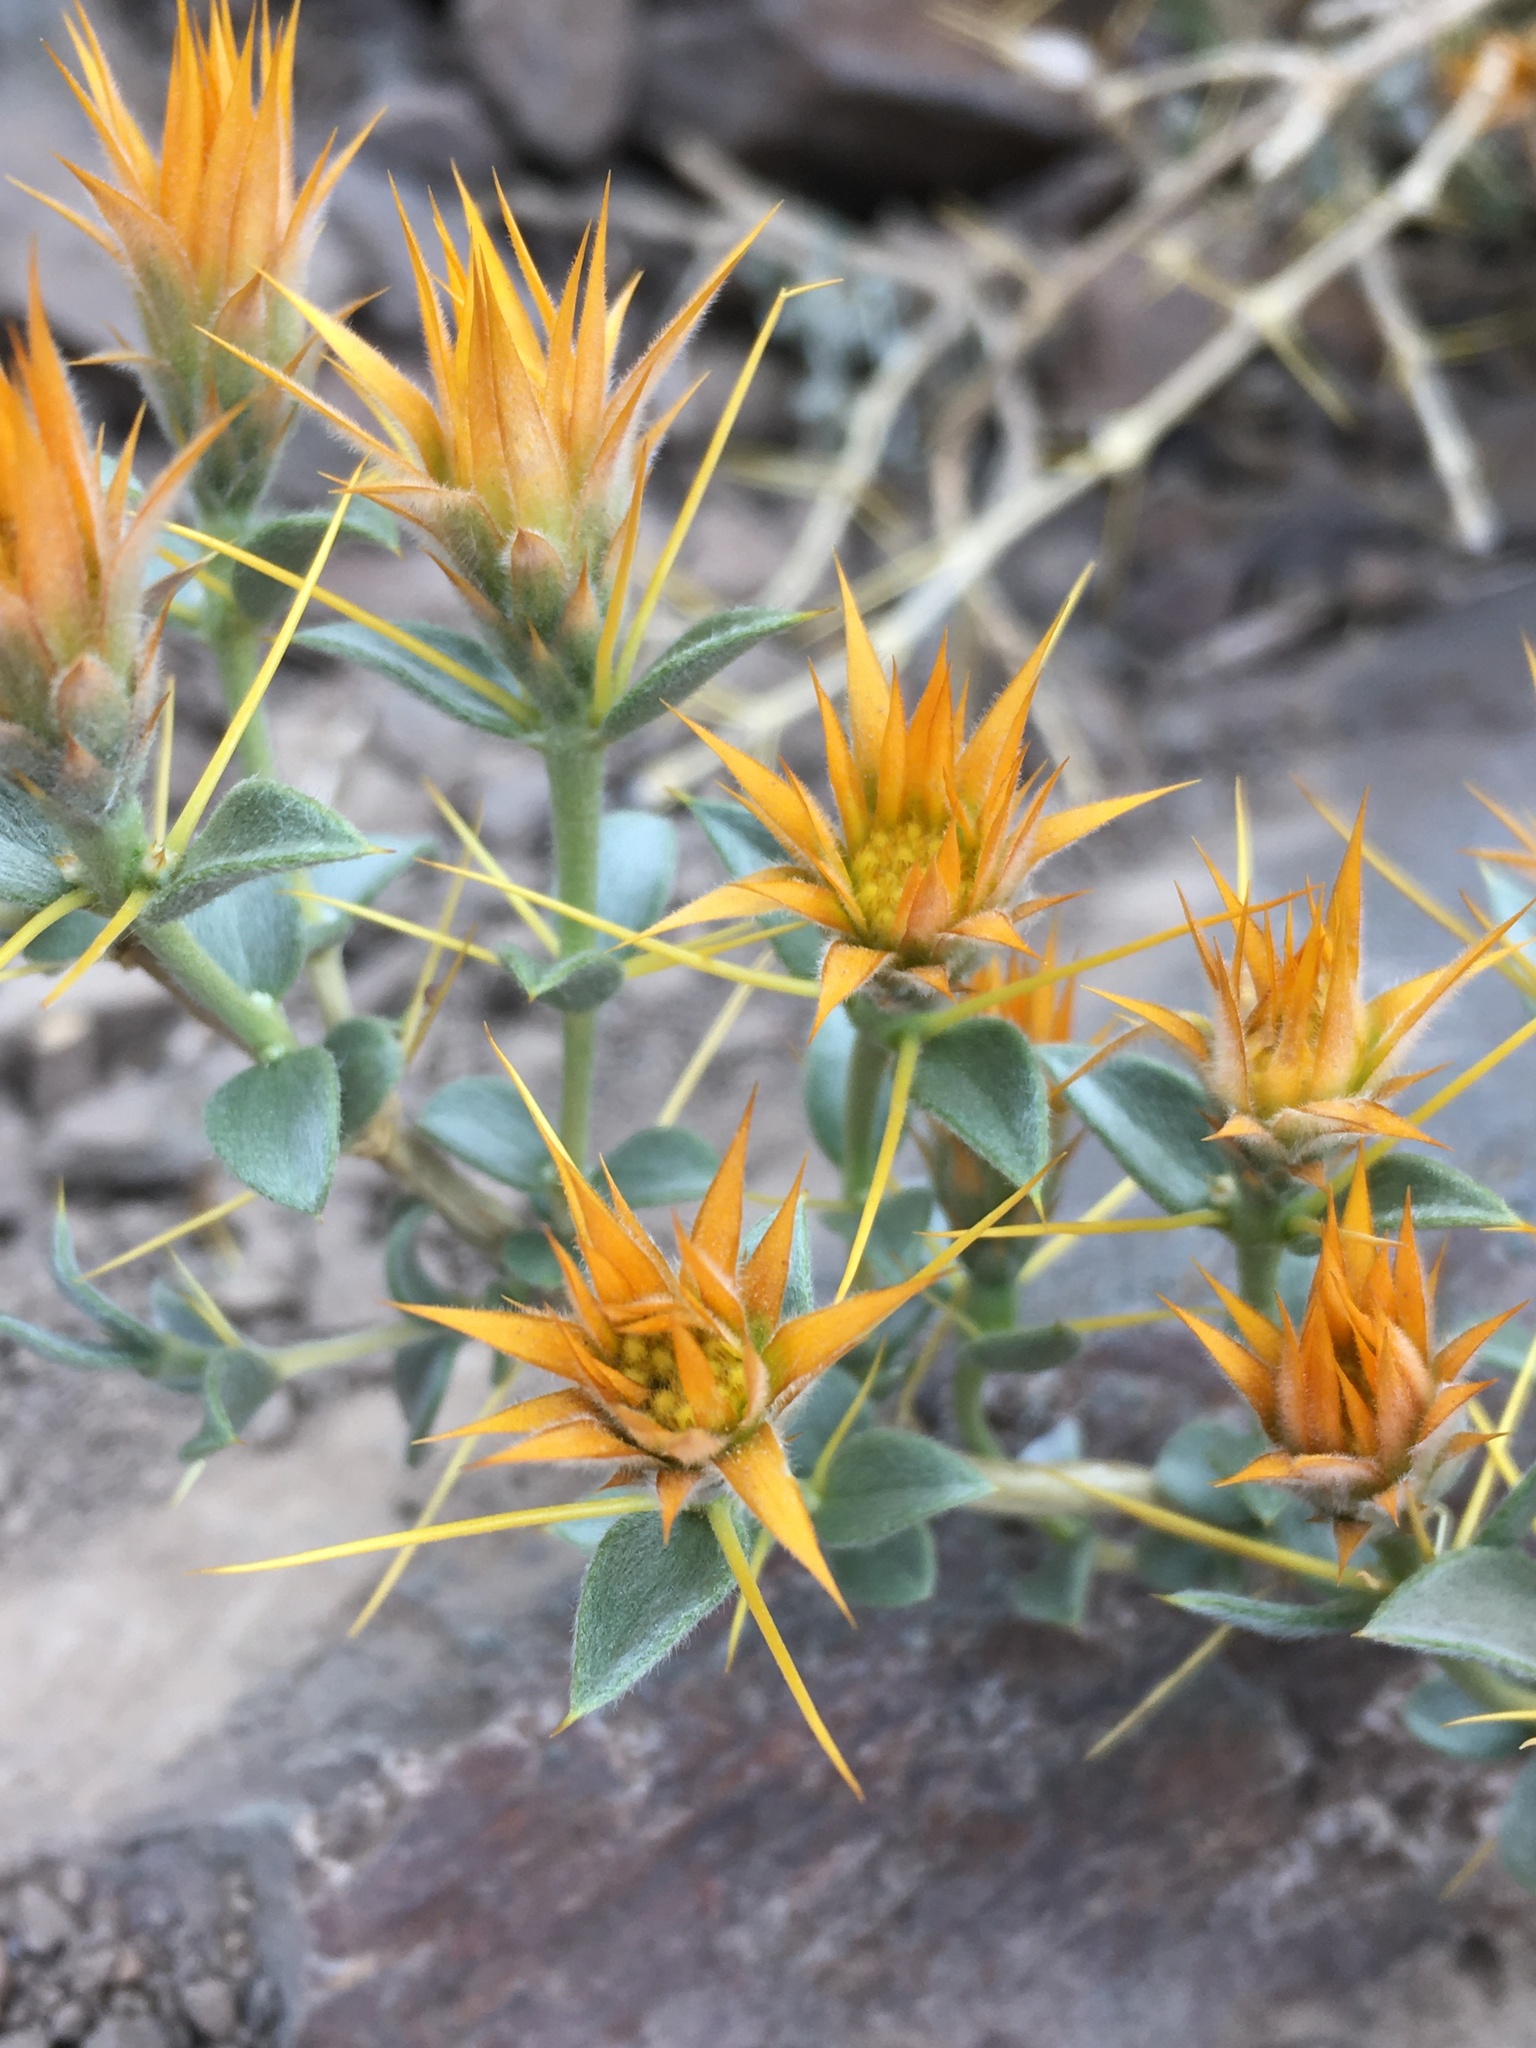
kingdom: Plantae
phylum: Tracheophyta
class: Magnoliopsida
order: Asterales
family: Asteraceae
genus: Chuquiraga
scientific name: Chuquiraga oppositifolia
